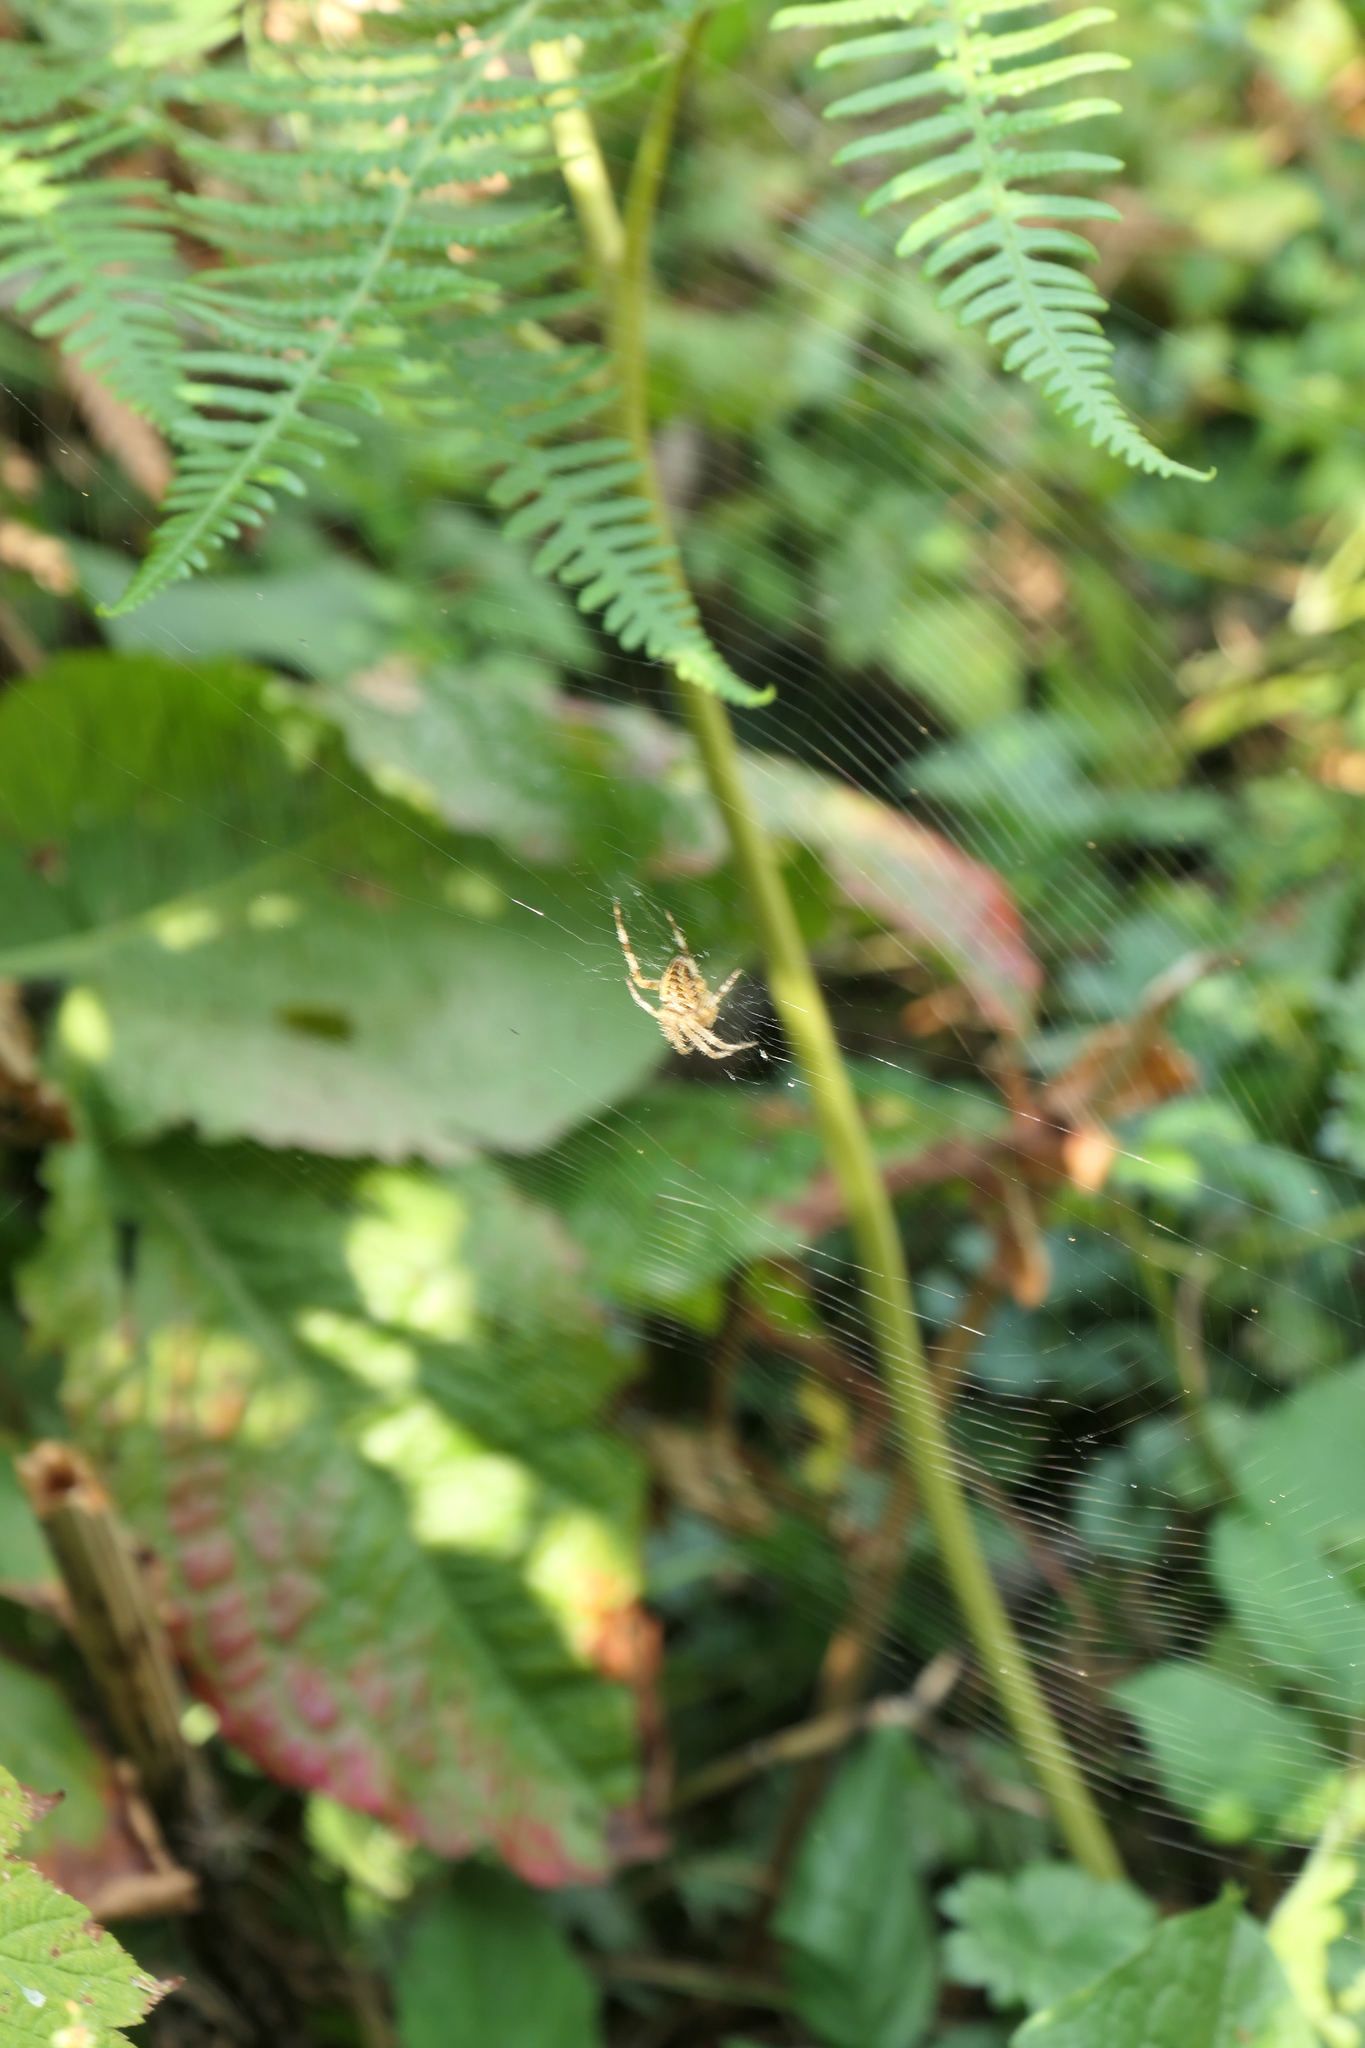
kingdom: Animalia
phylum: Arthropoda
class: Arachnida
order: Araneae
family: Araneidae
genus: Araneus
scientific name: Araneus diadematus
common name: Cross orbweaver
